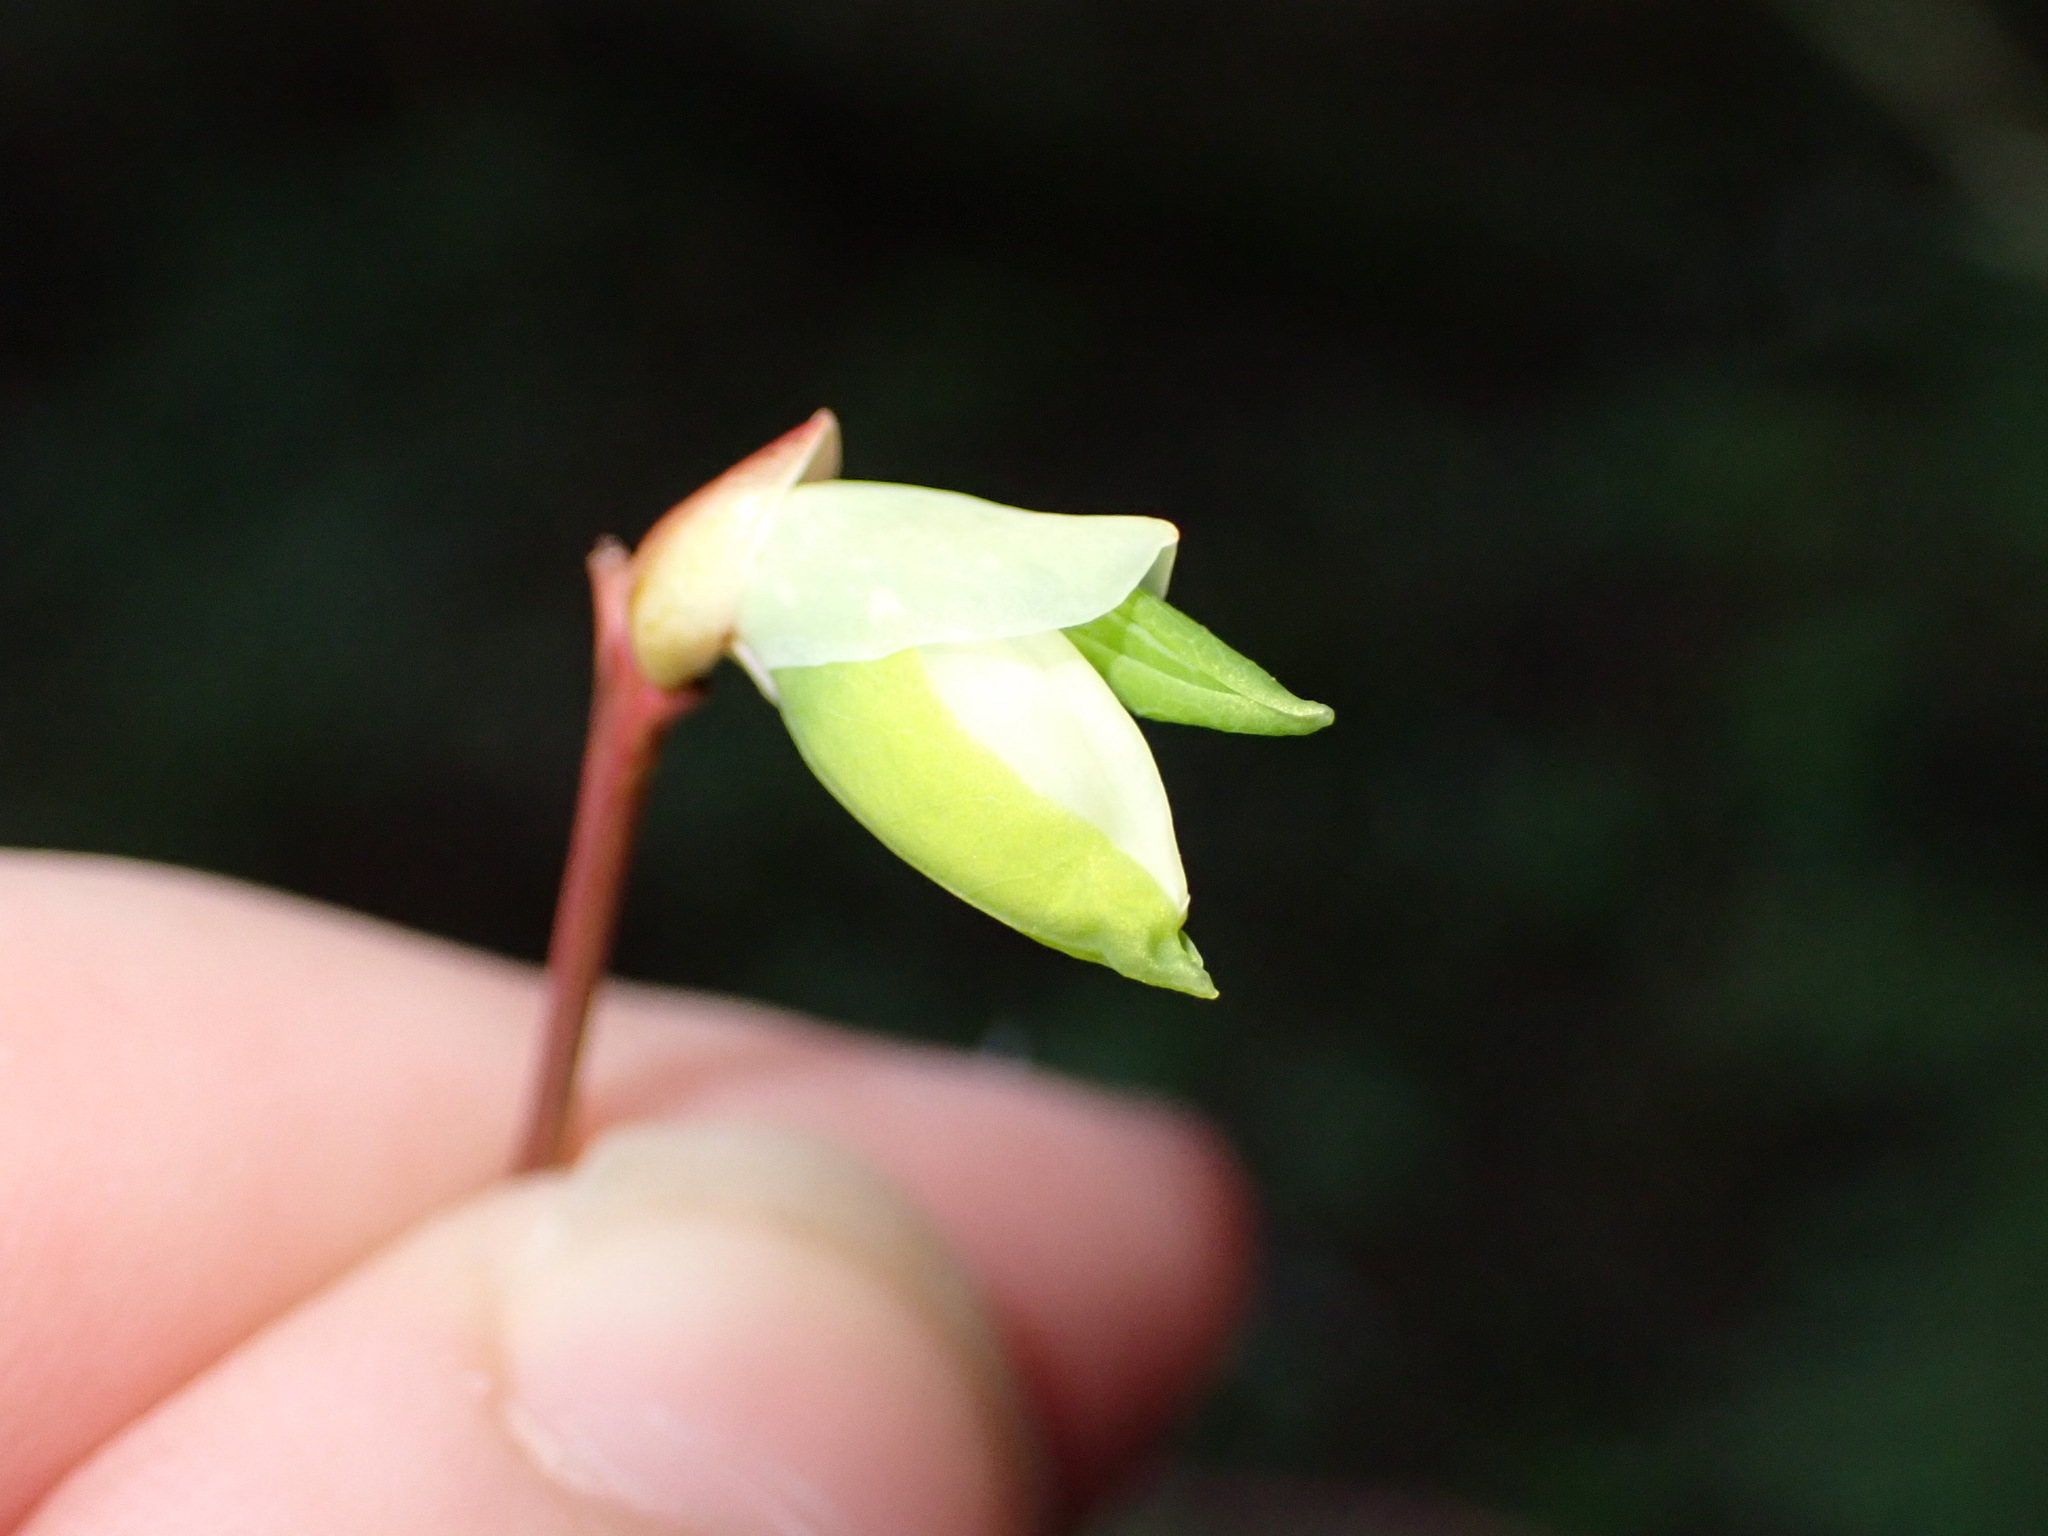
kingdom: Plantae
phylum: Tracheophyta
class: Magnoliopsida
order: Ericales
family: Ericaceae
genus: Vaccinium
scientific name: Vaccinium ovalifolium
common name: Early blueberry
